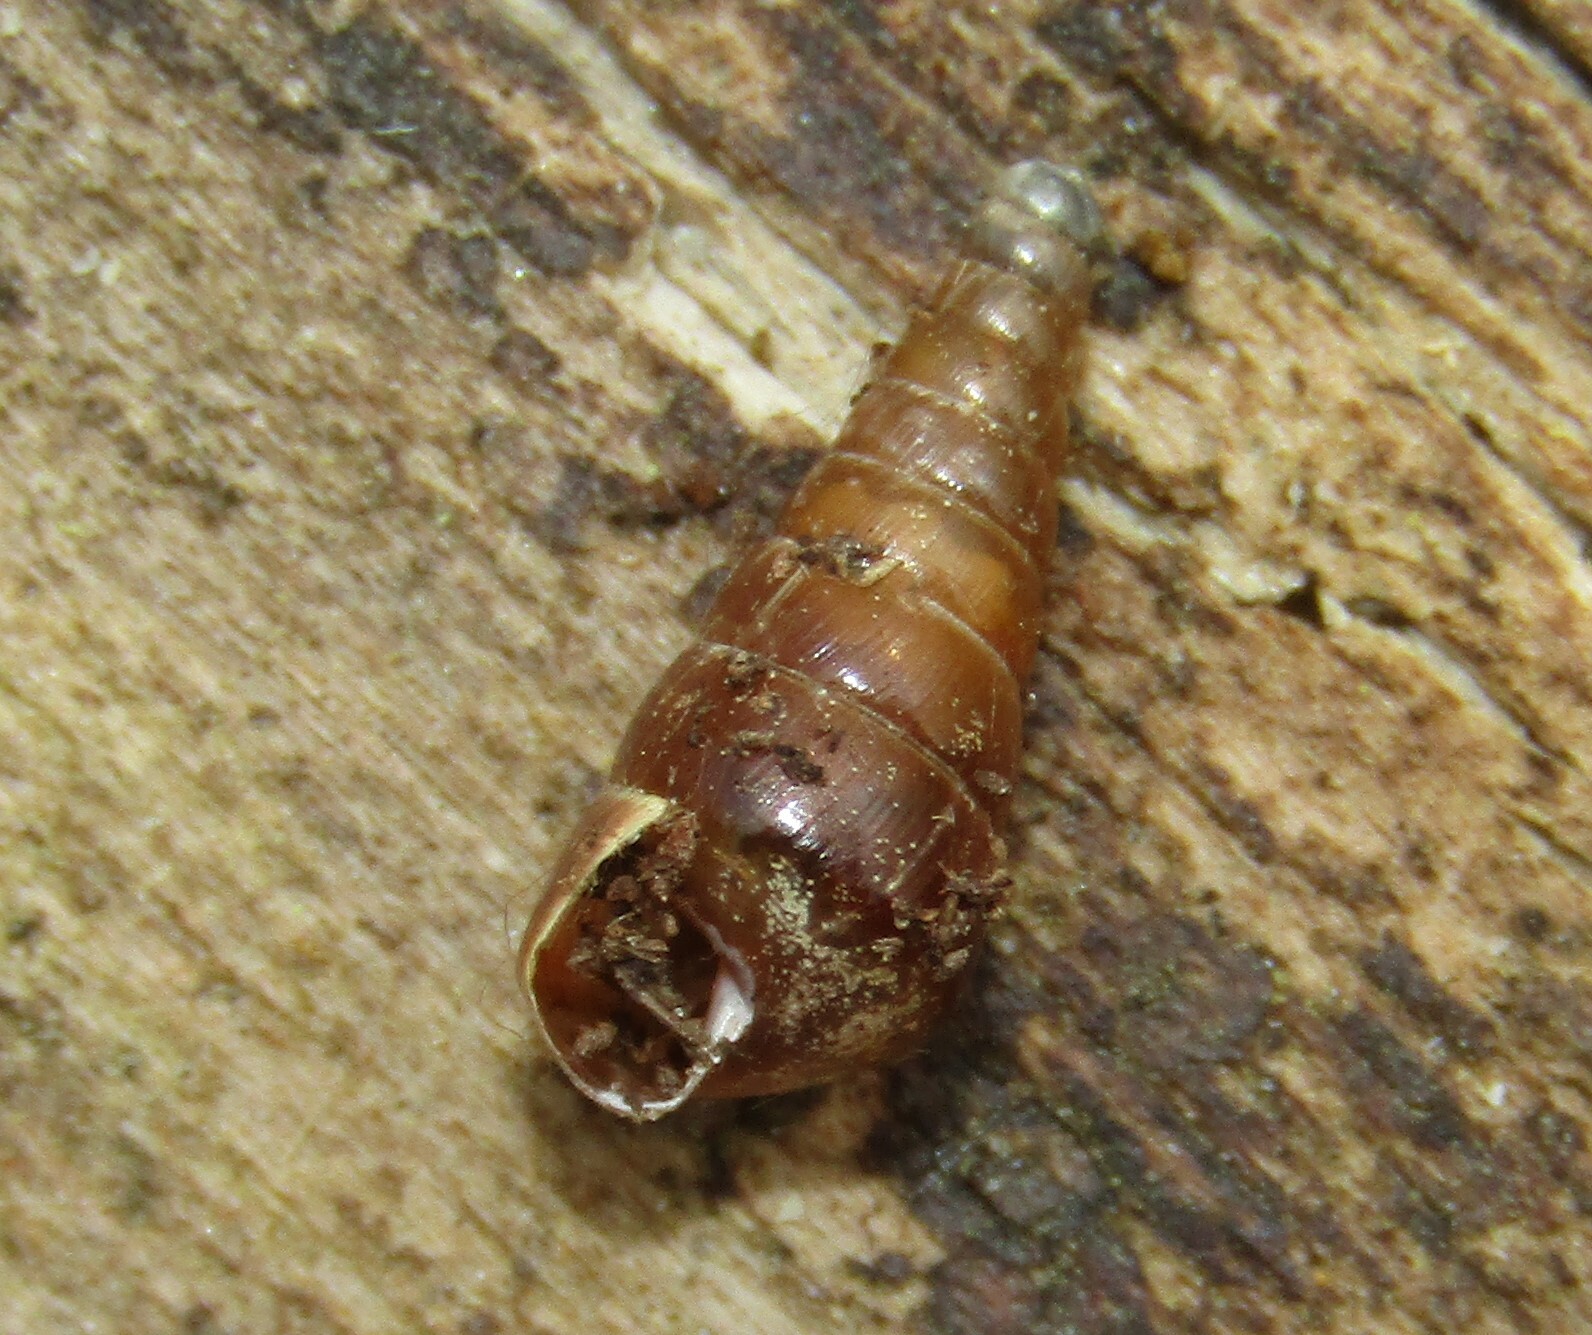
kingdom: Animalia
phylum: Mollusca
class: Gastropoda
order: Stylommatophora
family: Clausiliidae
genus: Cochlodina
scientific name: Cochlodina laminata
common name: Plaited door snail
